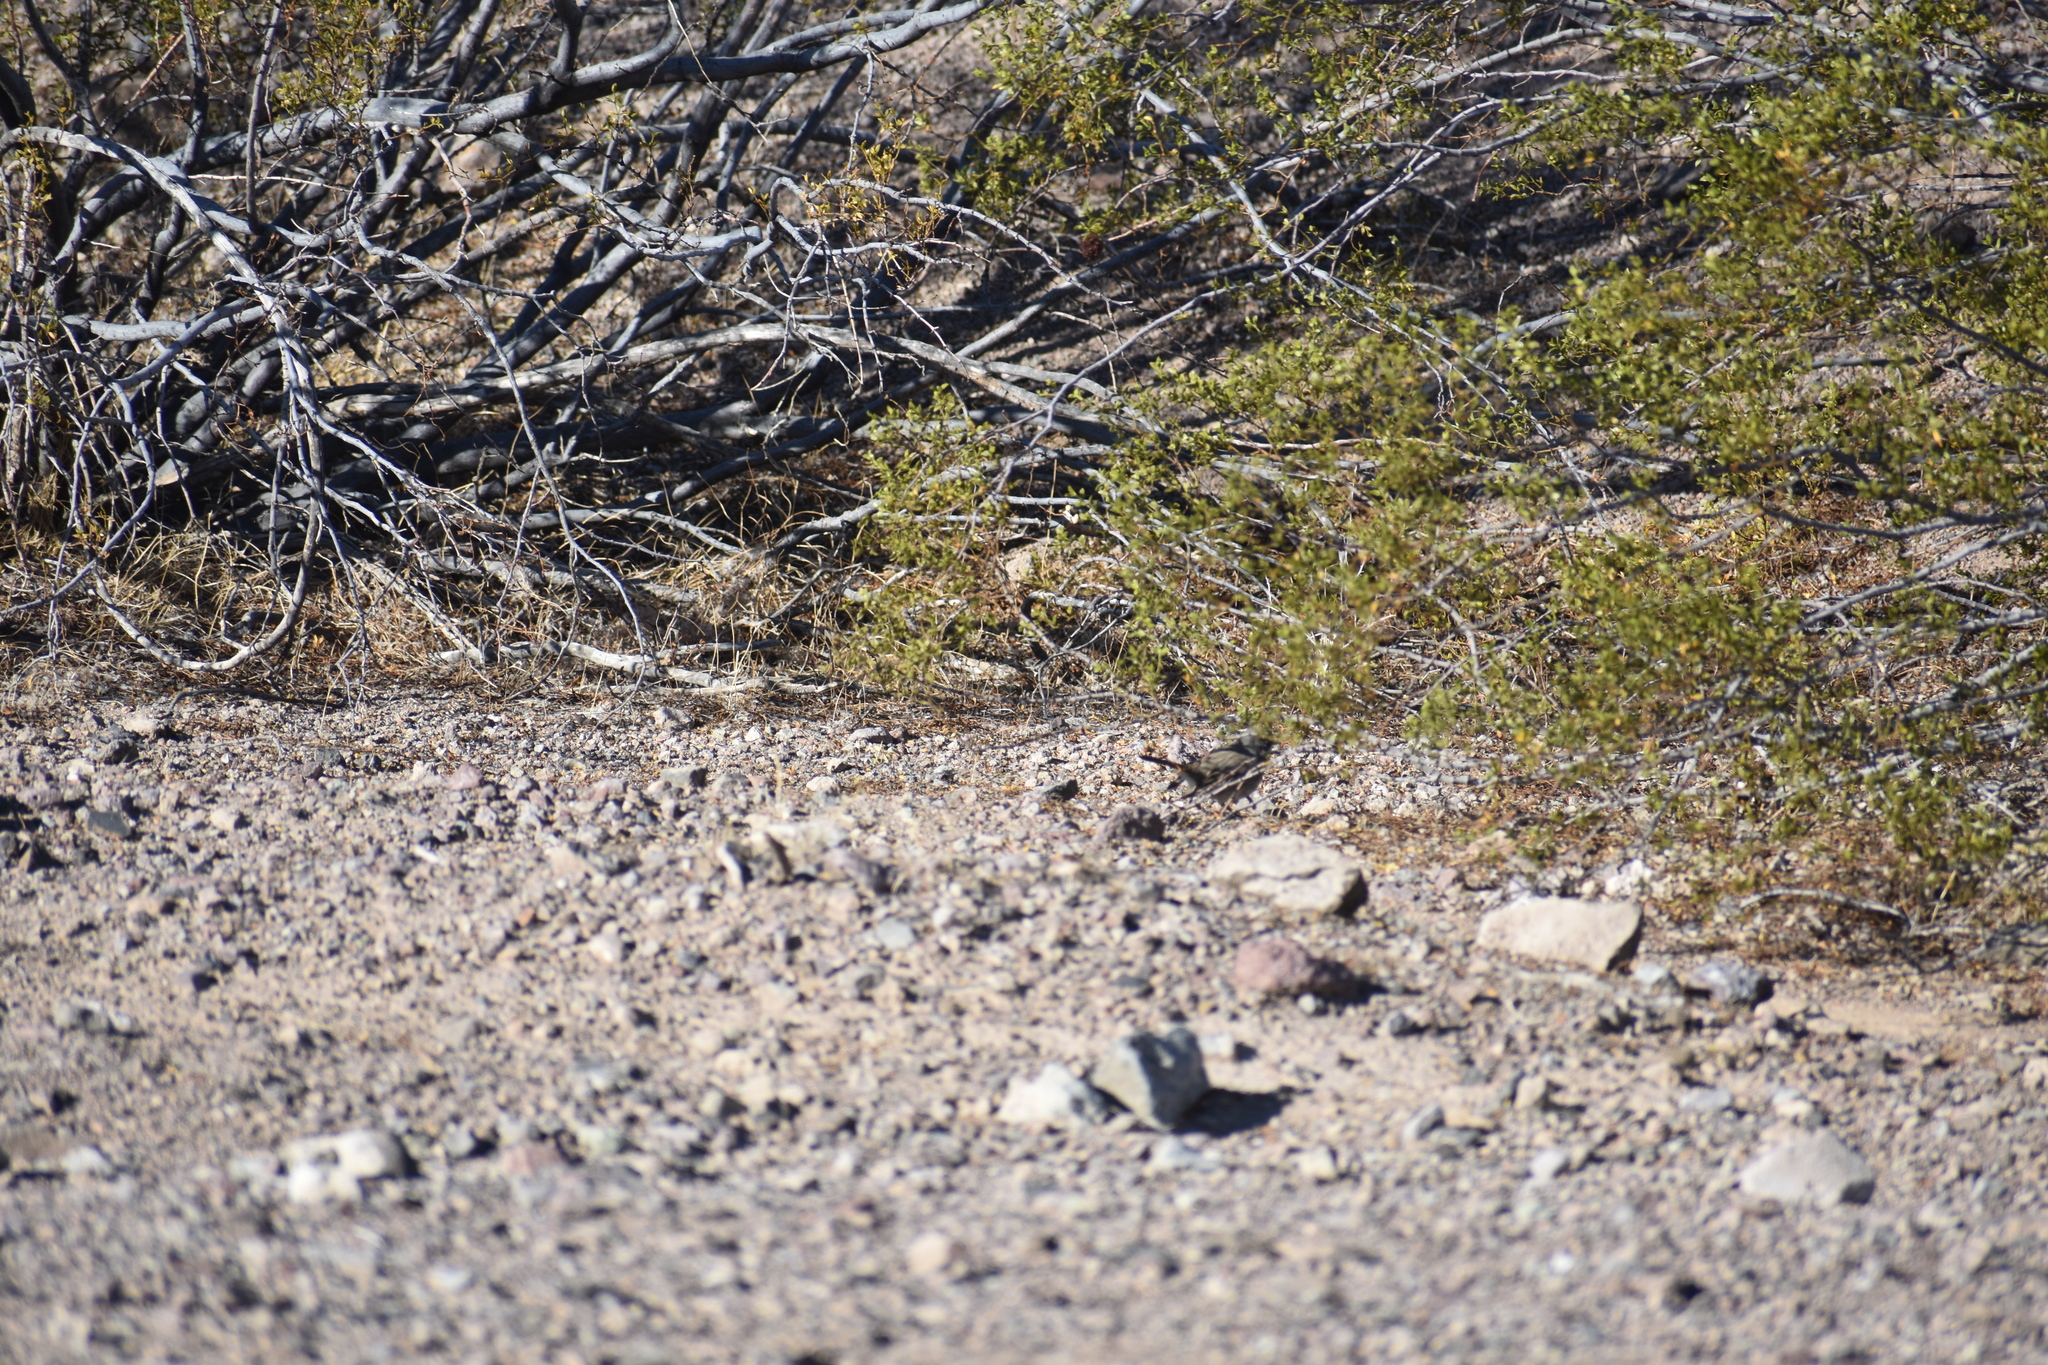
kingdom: Animalia
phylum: Chordata
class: Aves
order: Passeriformes
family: Passerellidae
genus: Amphispiza
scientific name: Amphispiza bilineata
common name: Black-throated sparrow
